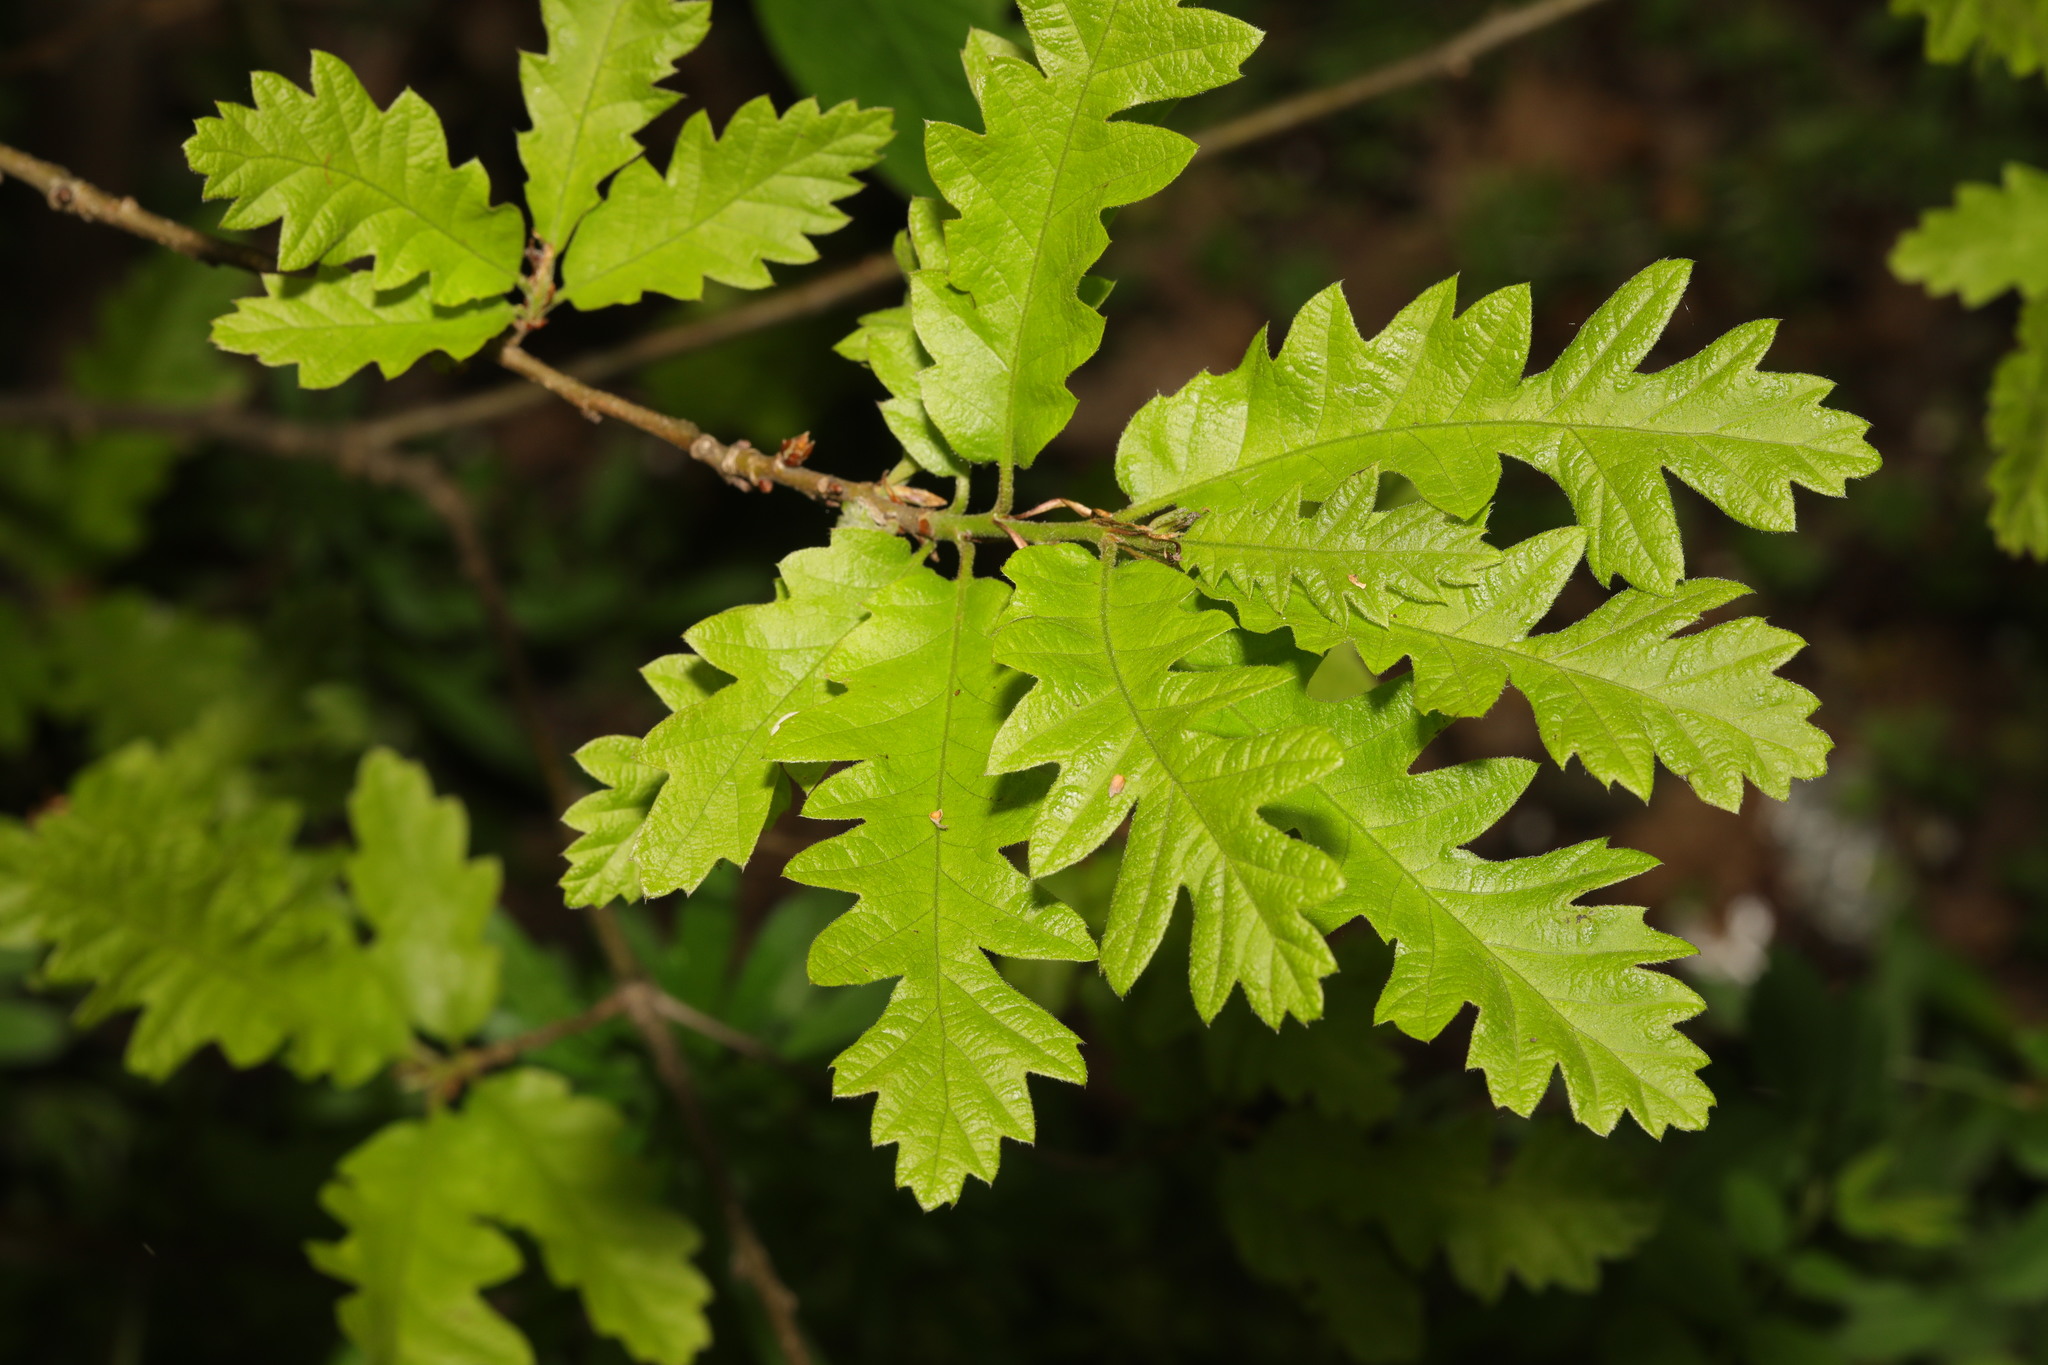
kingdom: Plantae
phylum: Tracheophyta
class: Magnoliopsida
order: Fagales
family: Fagaceae
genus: Quercus
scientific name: Quercus cerris
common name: Turkey oak
